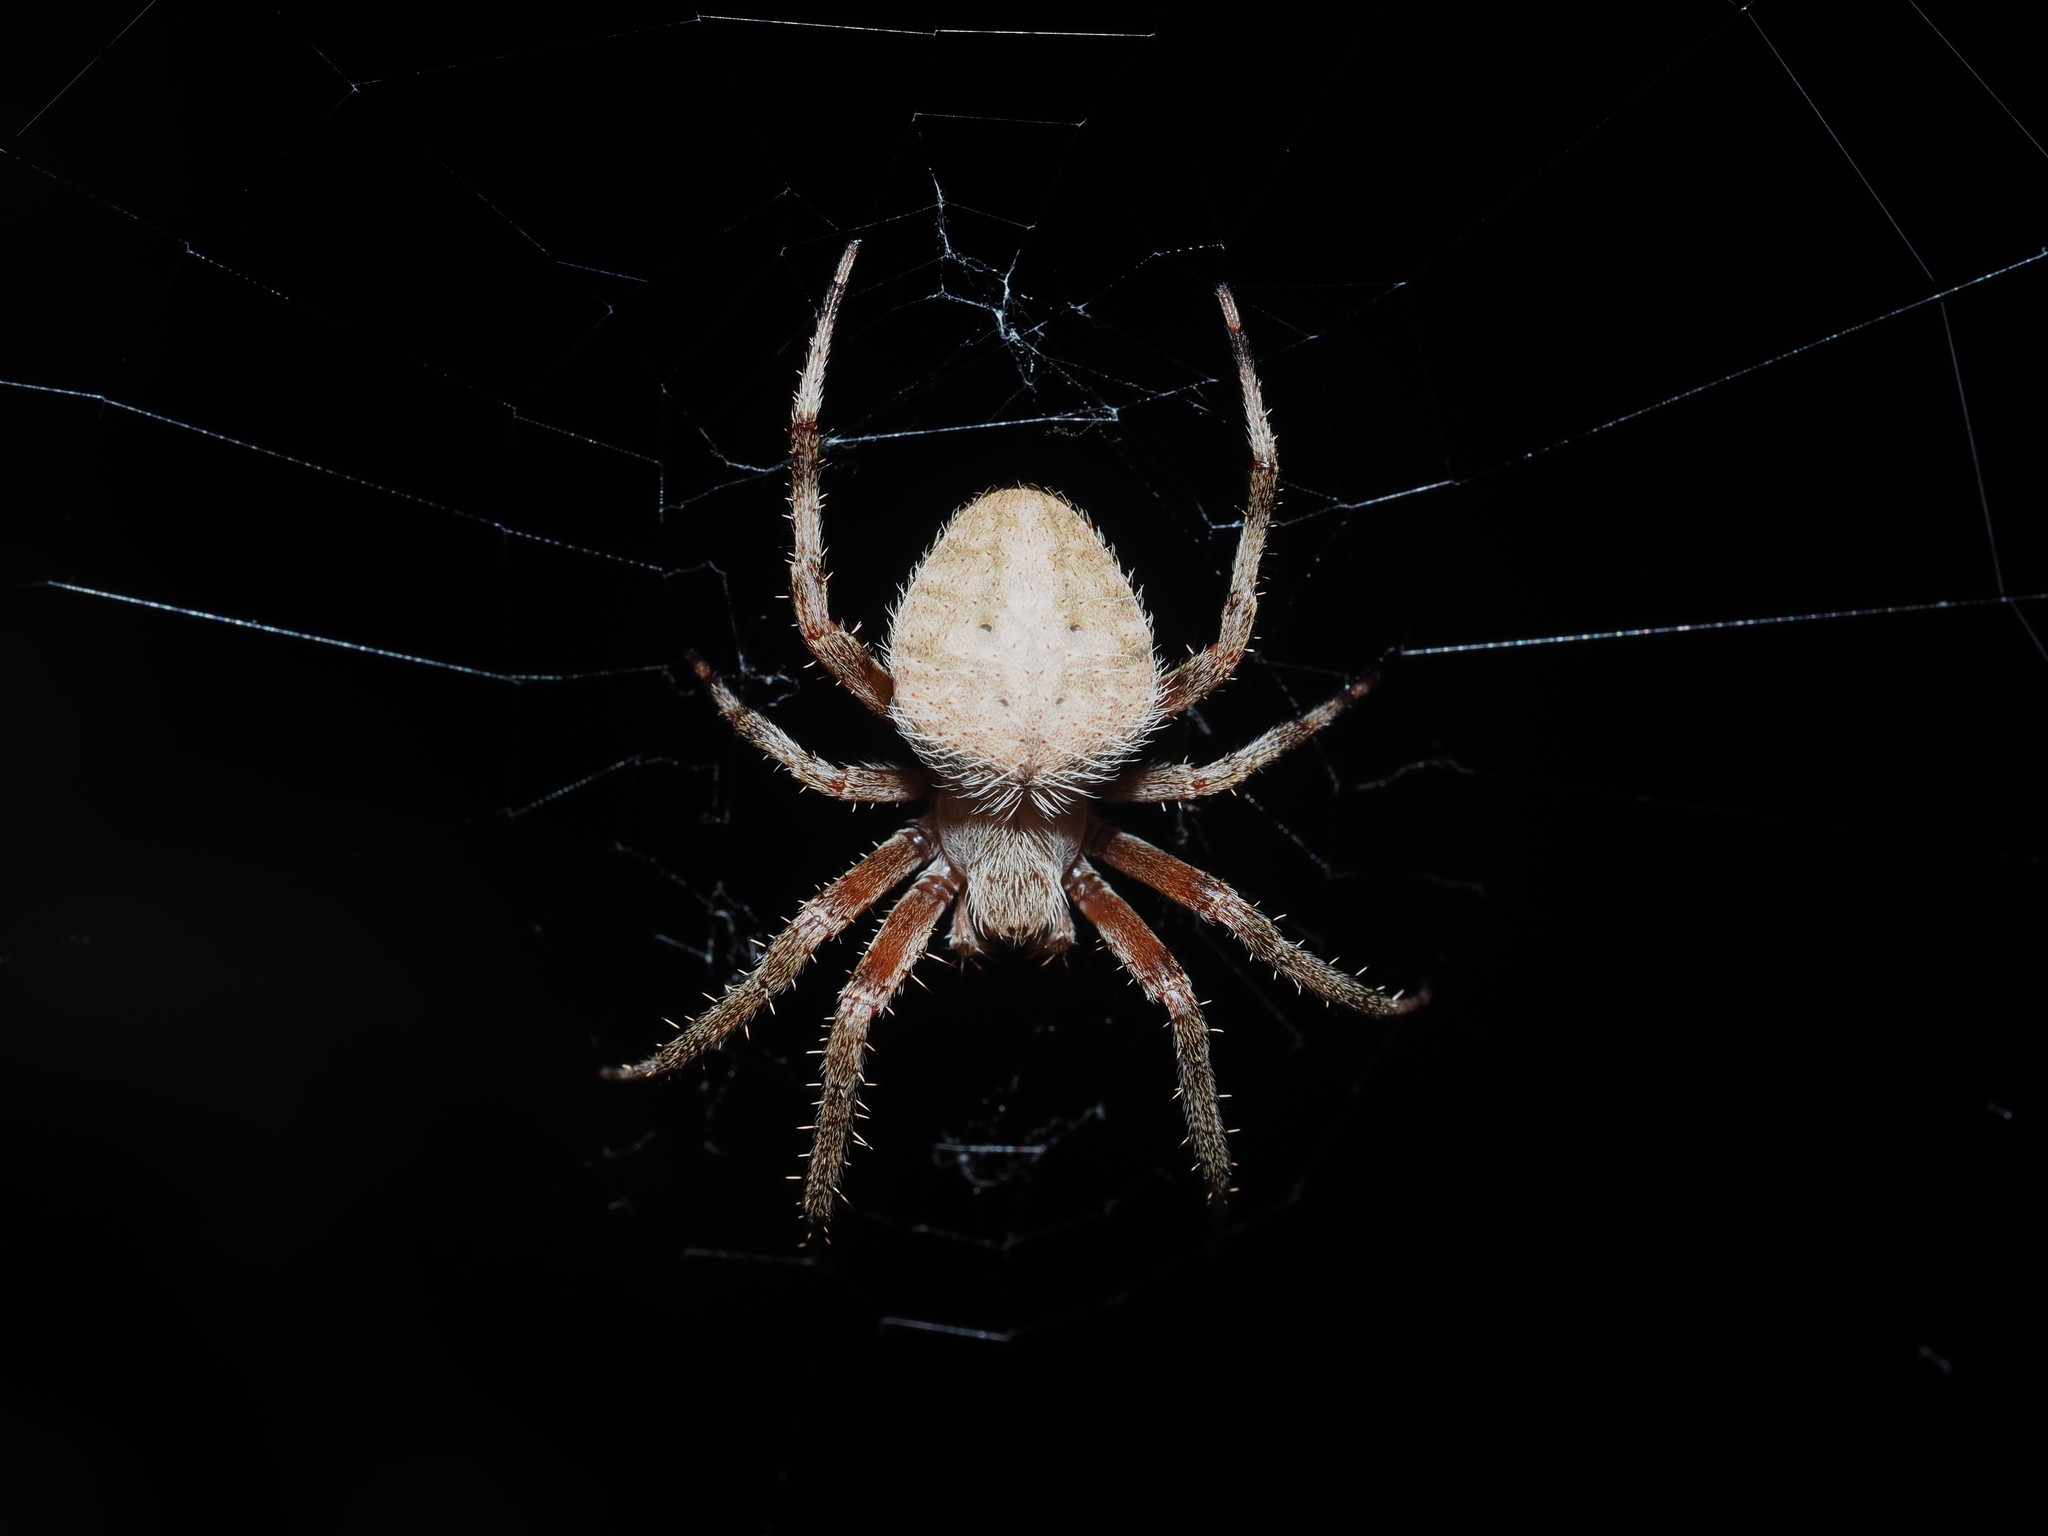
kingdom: Animalia
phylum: Arthropoda
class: Arachnida
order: Araneae
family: Araneidae
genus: Neoscona
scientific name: Neoscona crucifera
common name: Spotted orbweaver
